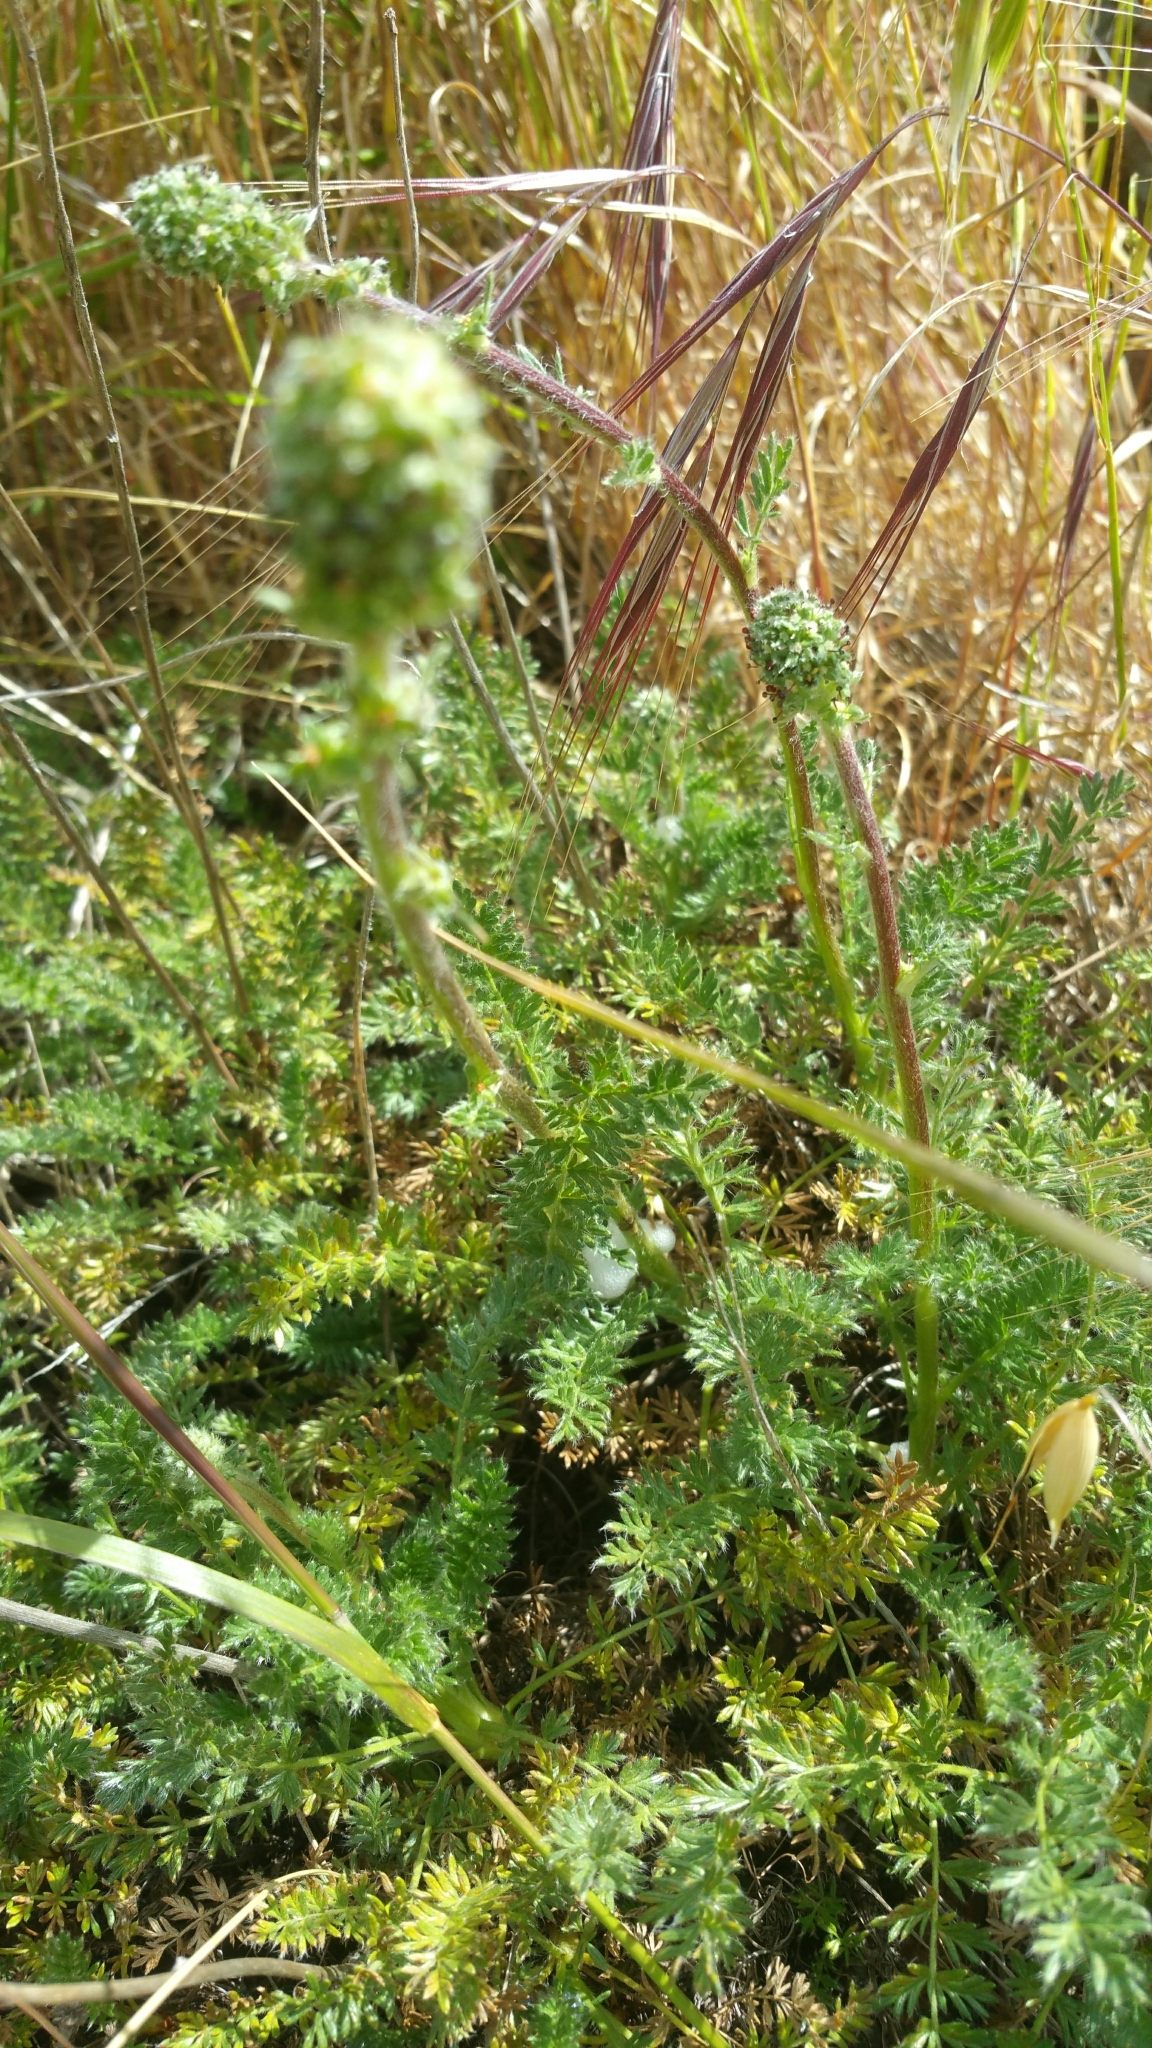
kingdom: Plantae
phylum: Tracheophyta
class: Magnoliopsida
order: Rosales
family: Rosaceae
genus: Acaena
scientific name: Acaena pinnatifida
